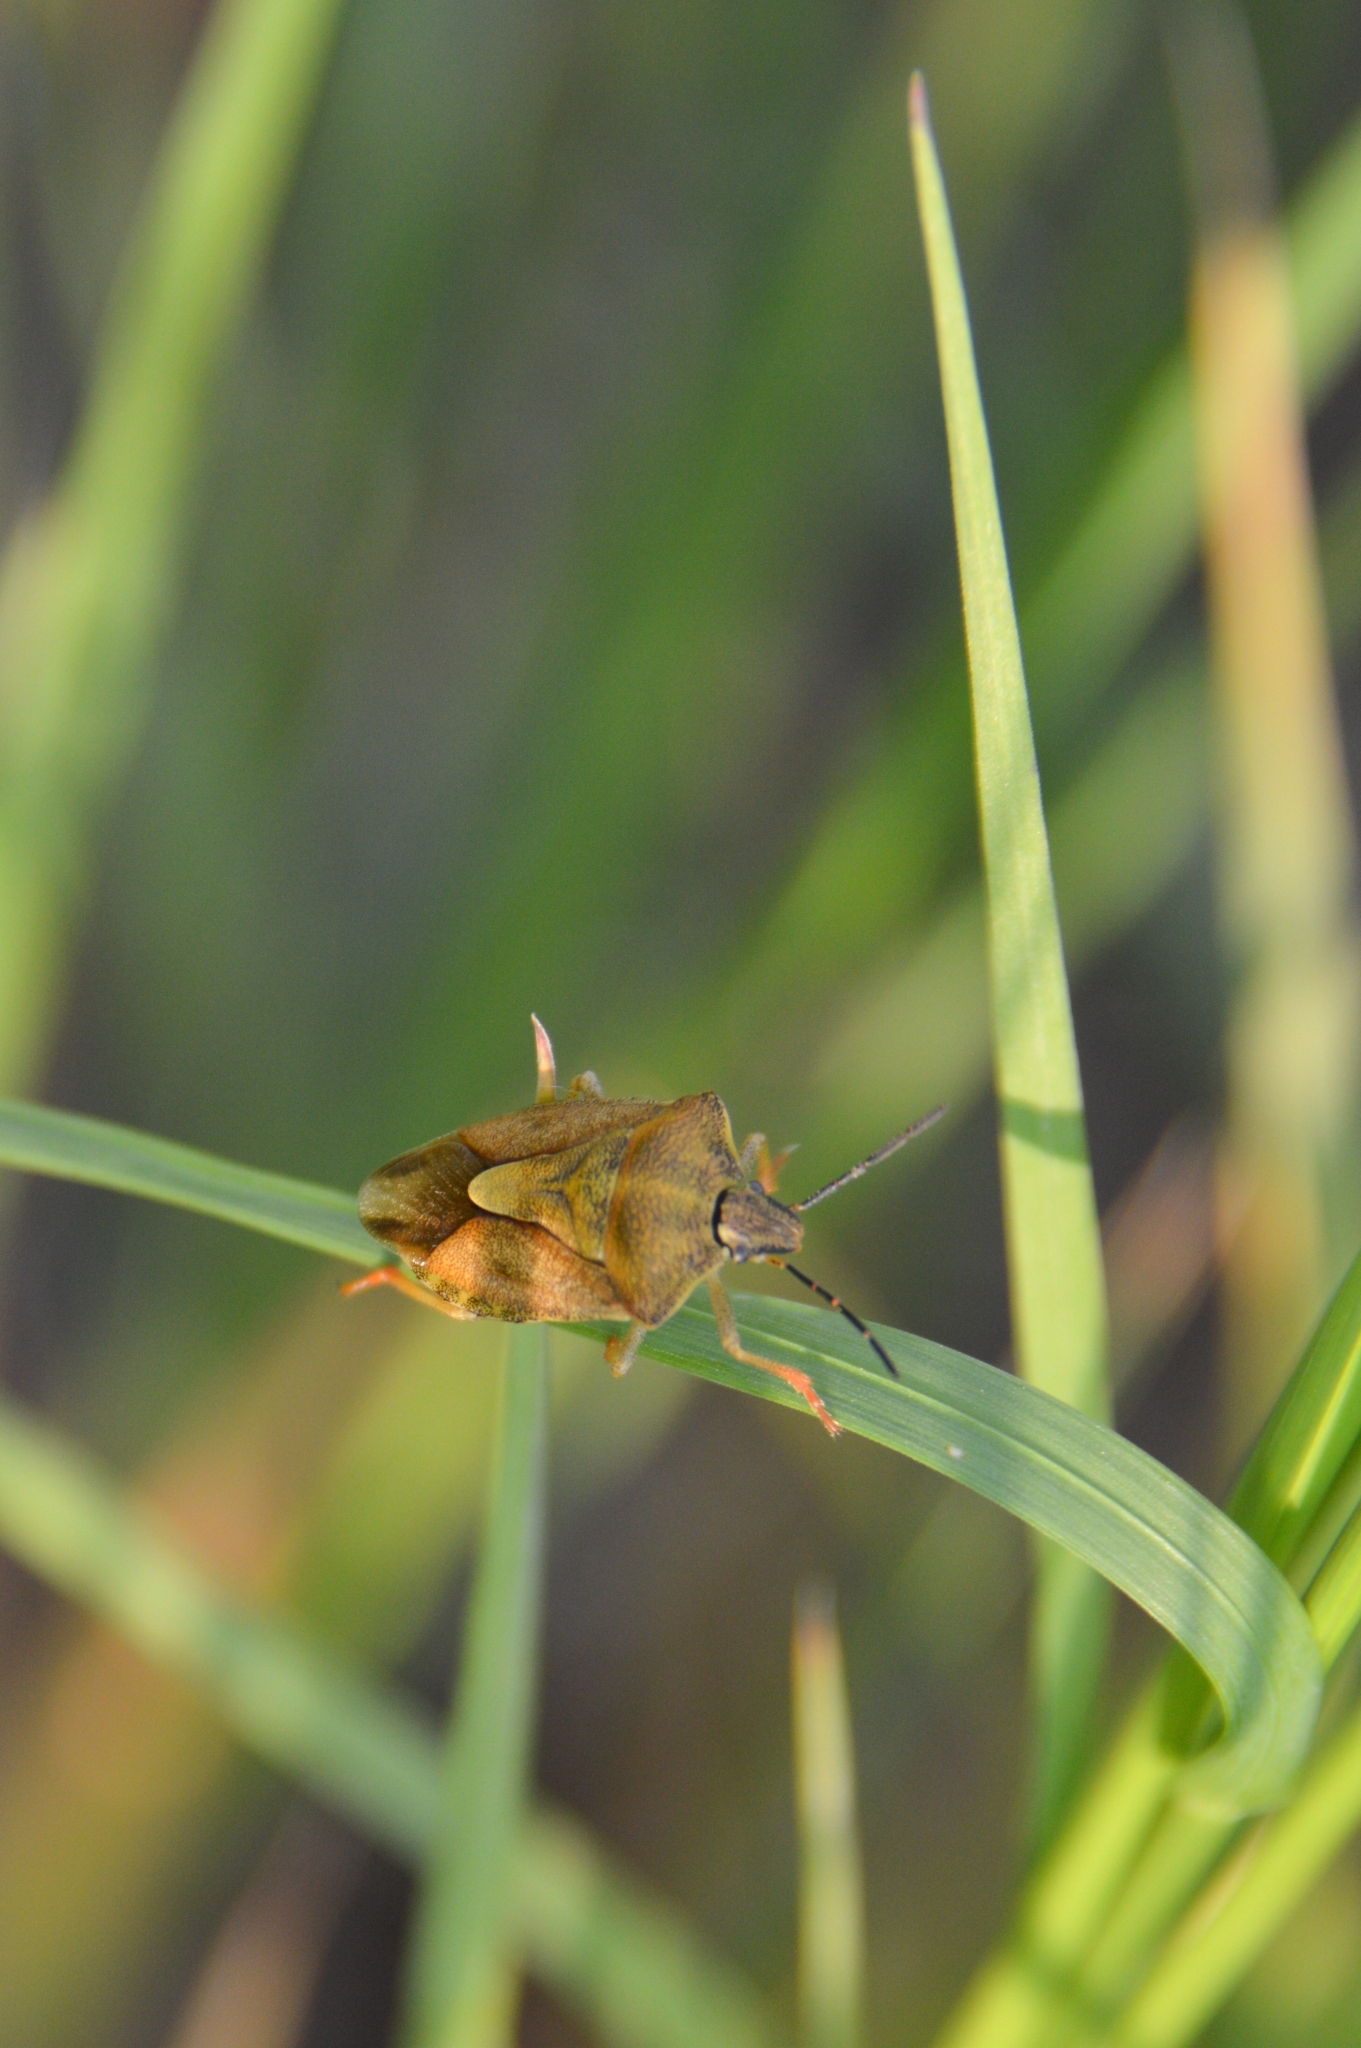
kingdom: Animalia
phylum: Arthropoda
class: Insecta
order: Hemiptera
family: Pentatomidae
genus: Carpocoris
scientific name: Carpocoris purpureipennis
